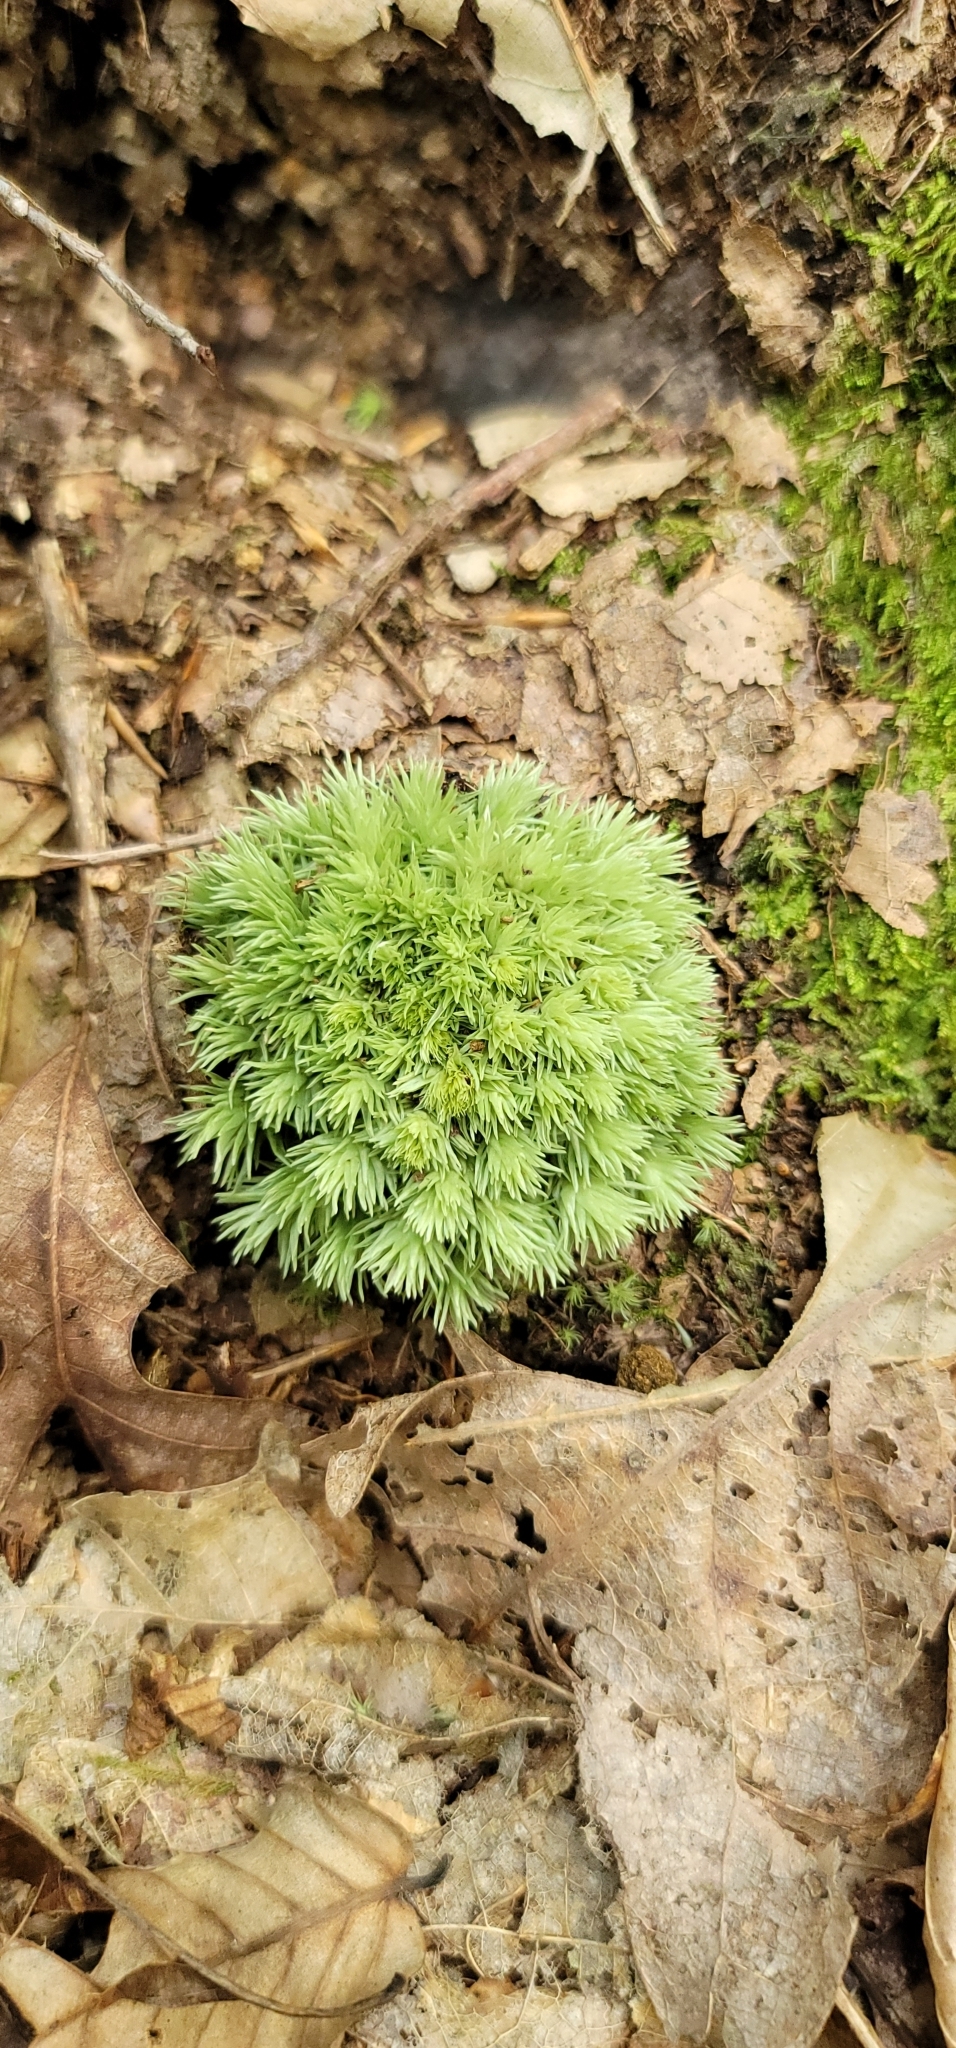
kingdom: Plantae
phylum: Bryophyta
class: Bryopsida
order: Dicranales
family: Leucobryaceae
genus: Leucobryum
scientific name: Leucobryum glaucum
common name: Large white-moss
